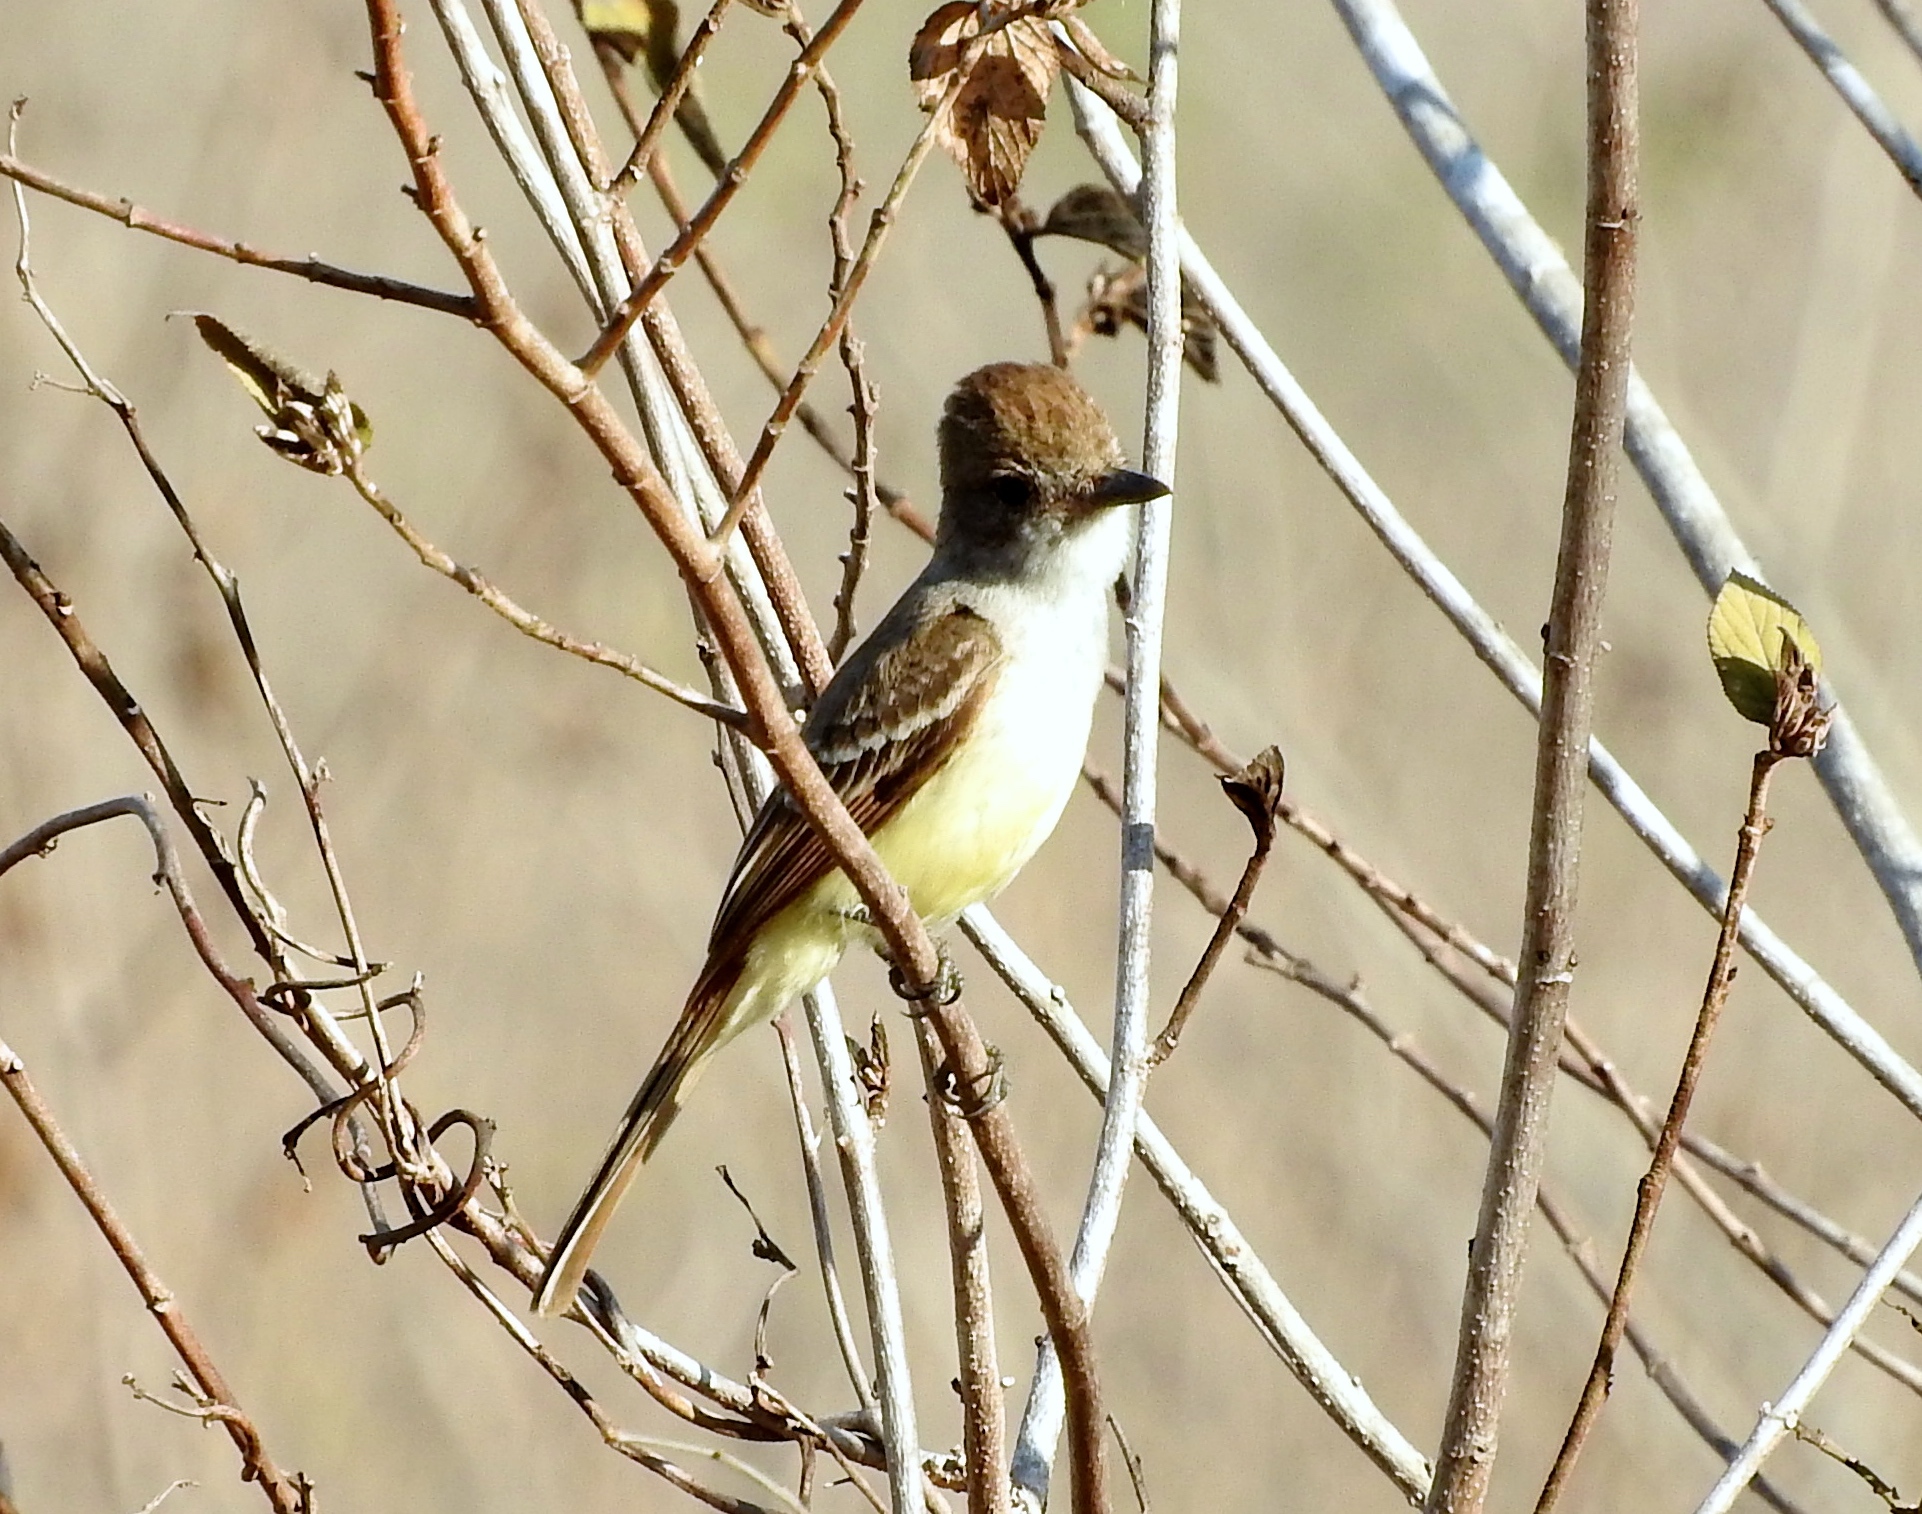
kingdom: Animalia
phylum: Chordata
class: Aves
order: Passeriformes
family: Tyrannidae
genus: Myiarchus
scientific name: Myiarchus
